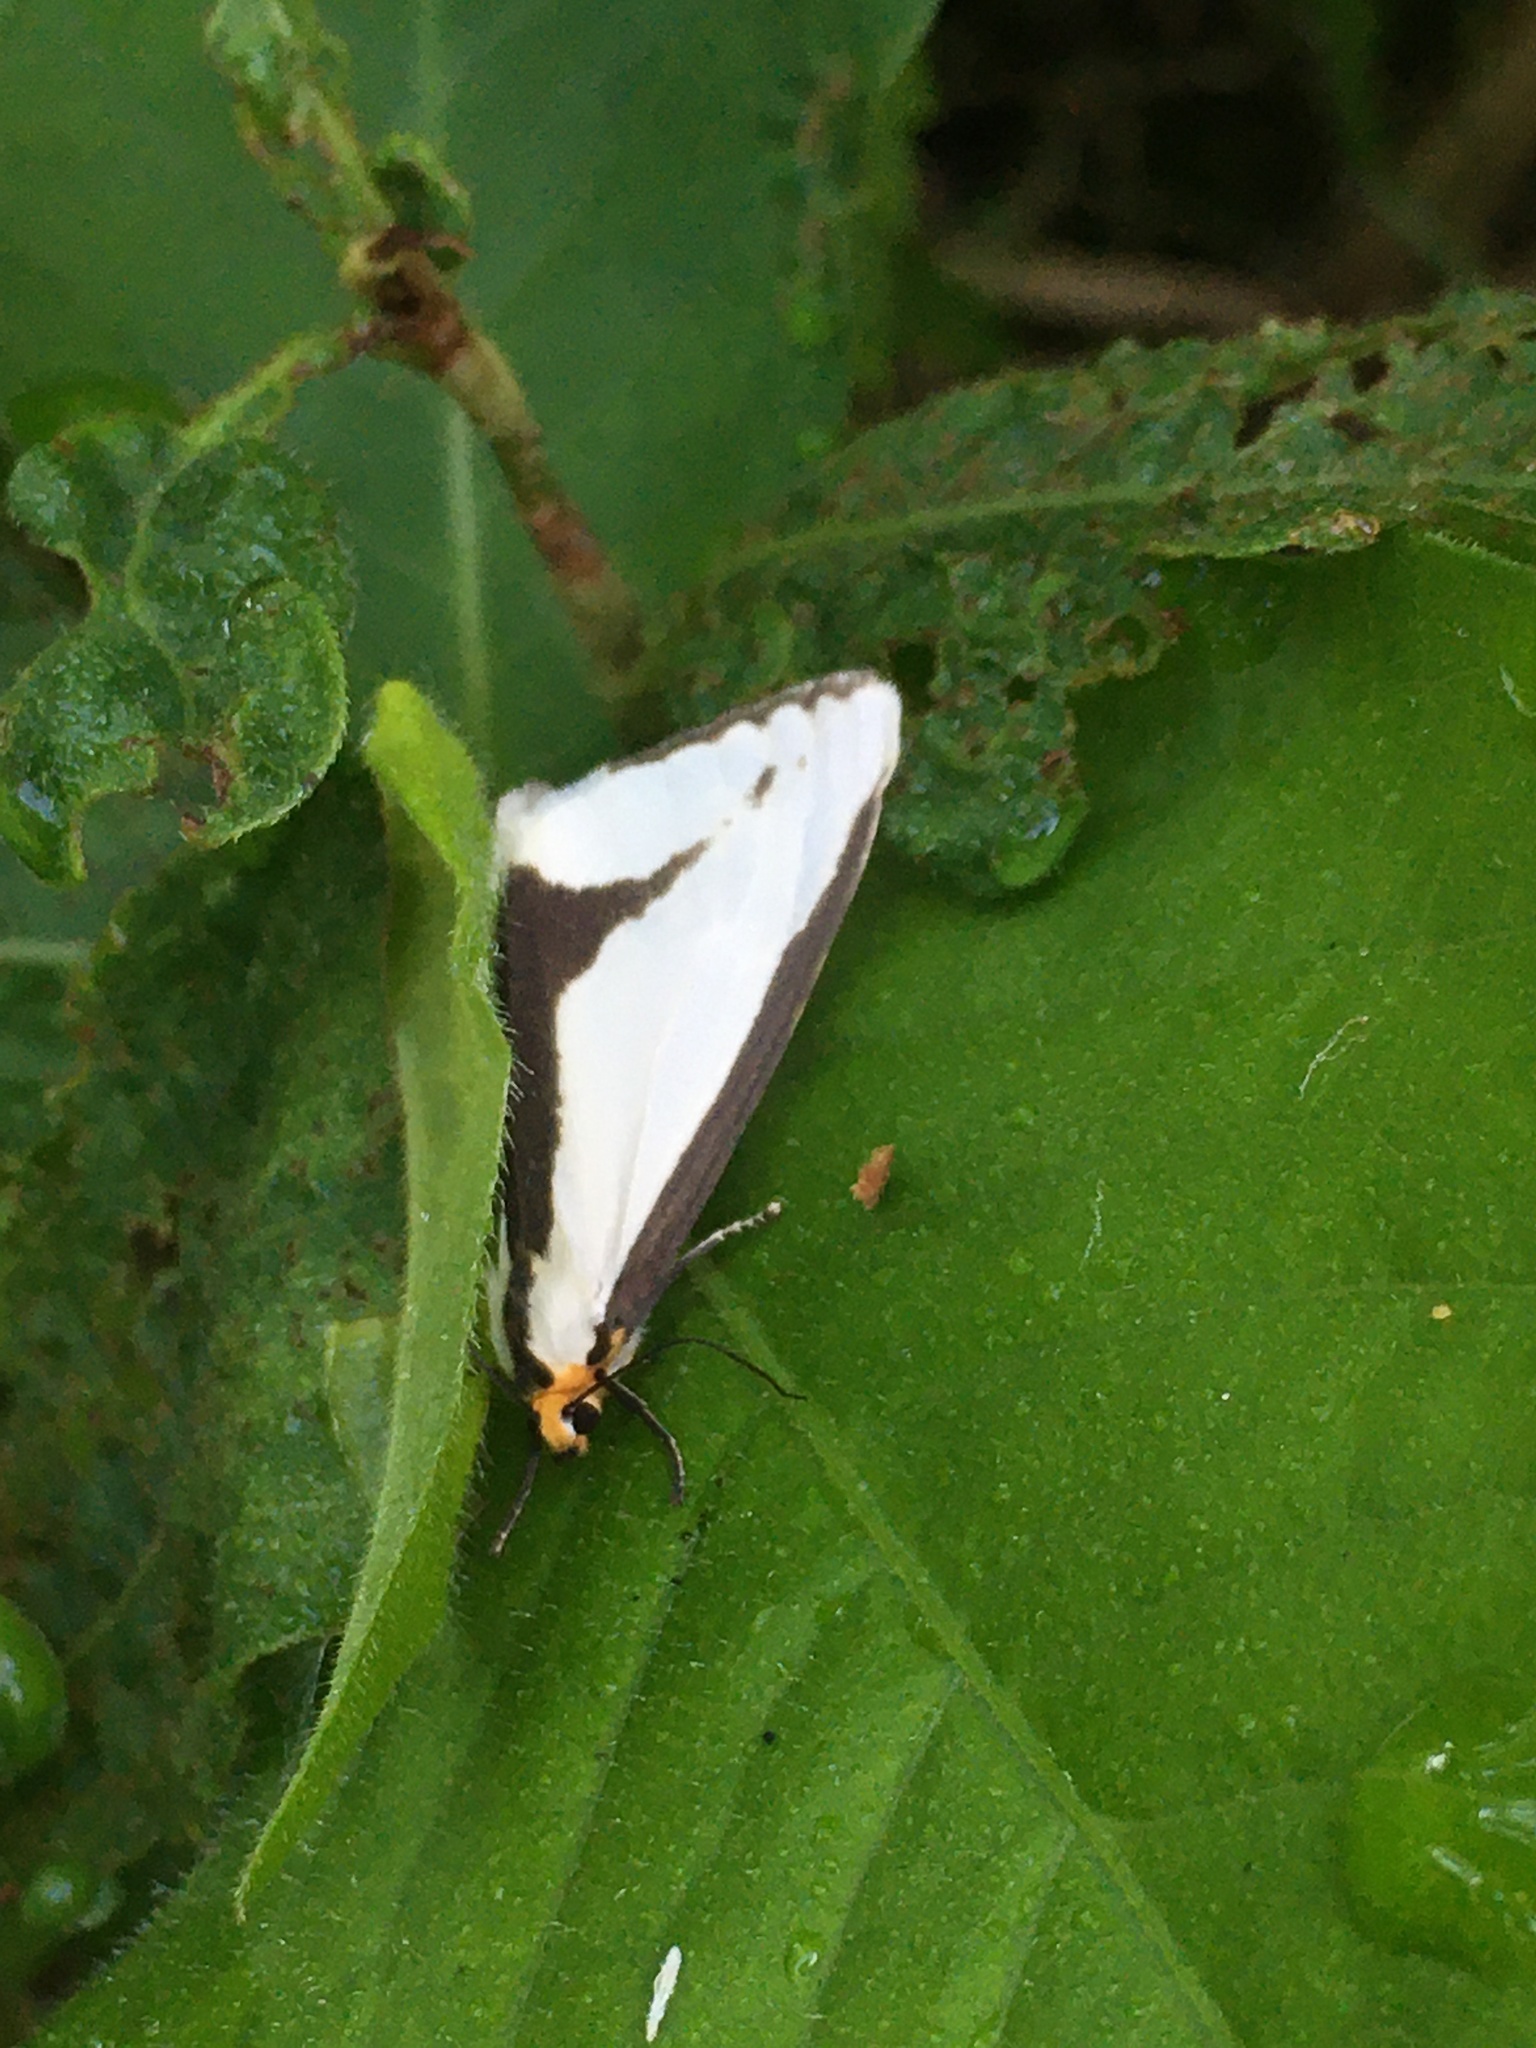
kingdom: Animalia
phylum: Arthropoda
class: Insecta
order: Lepidoptera
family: Erebidae
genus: Haploa
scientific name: Haploa lecontei
